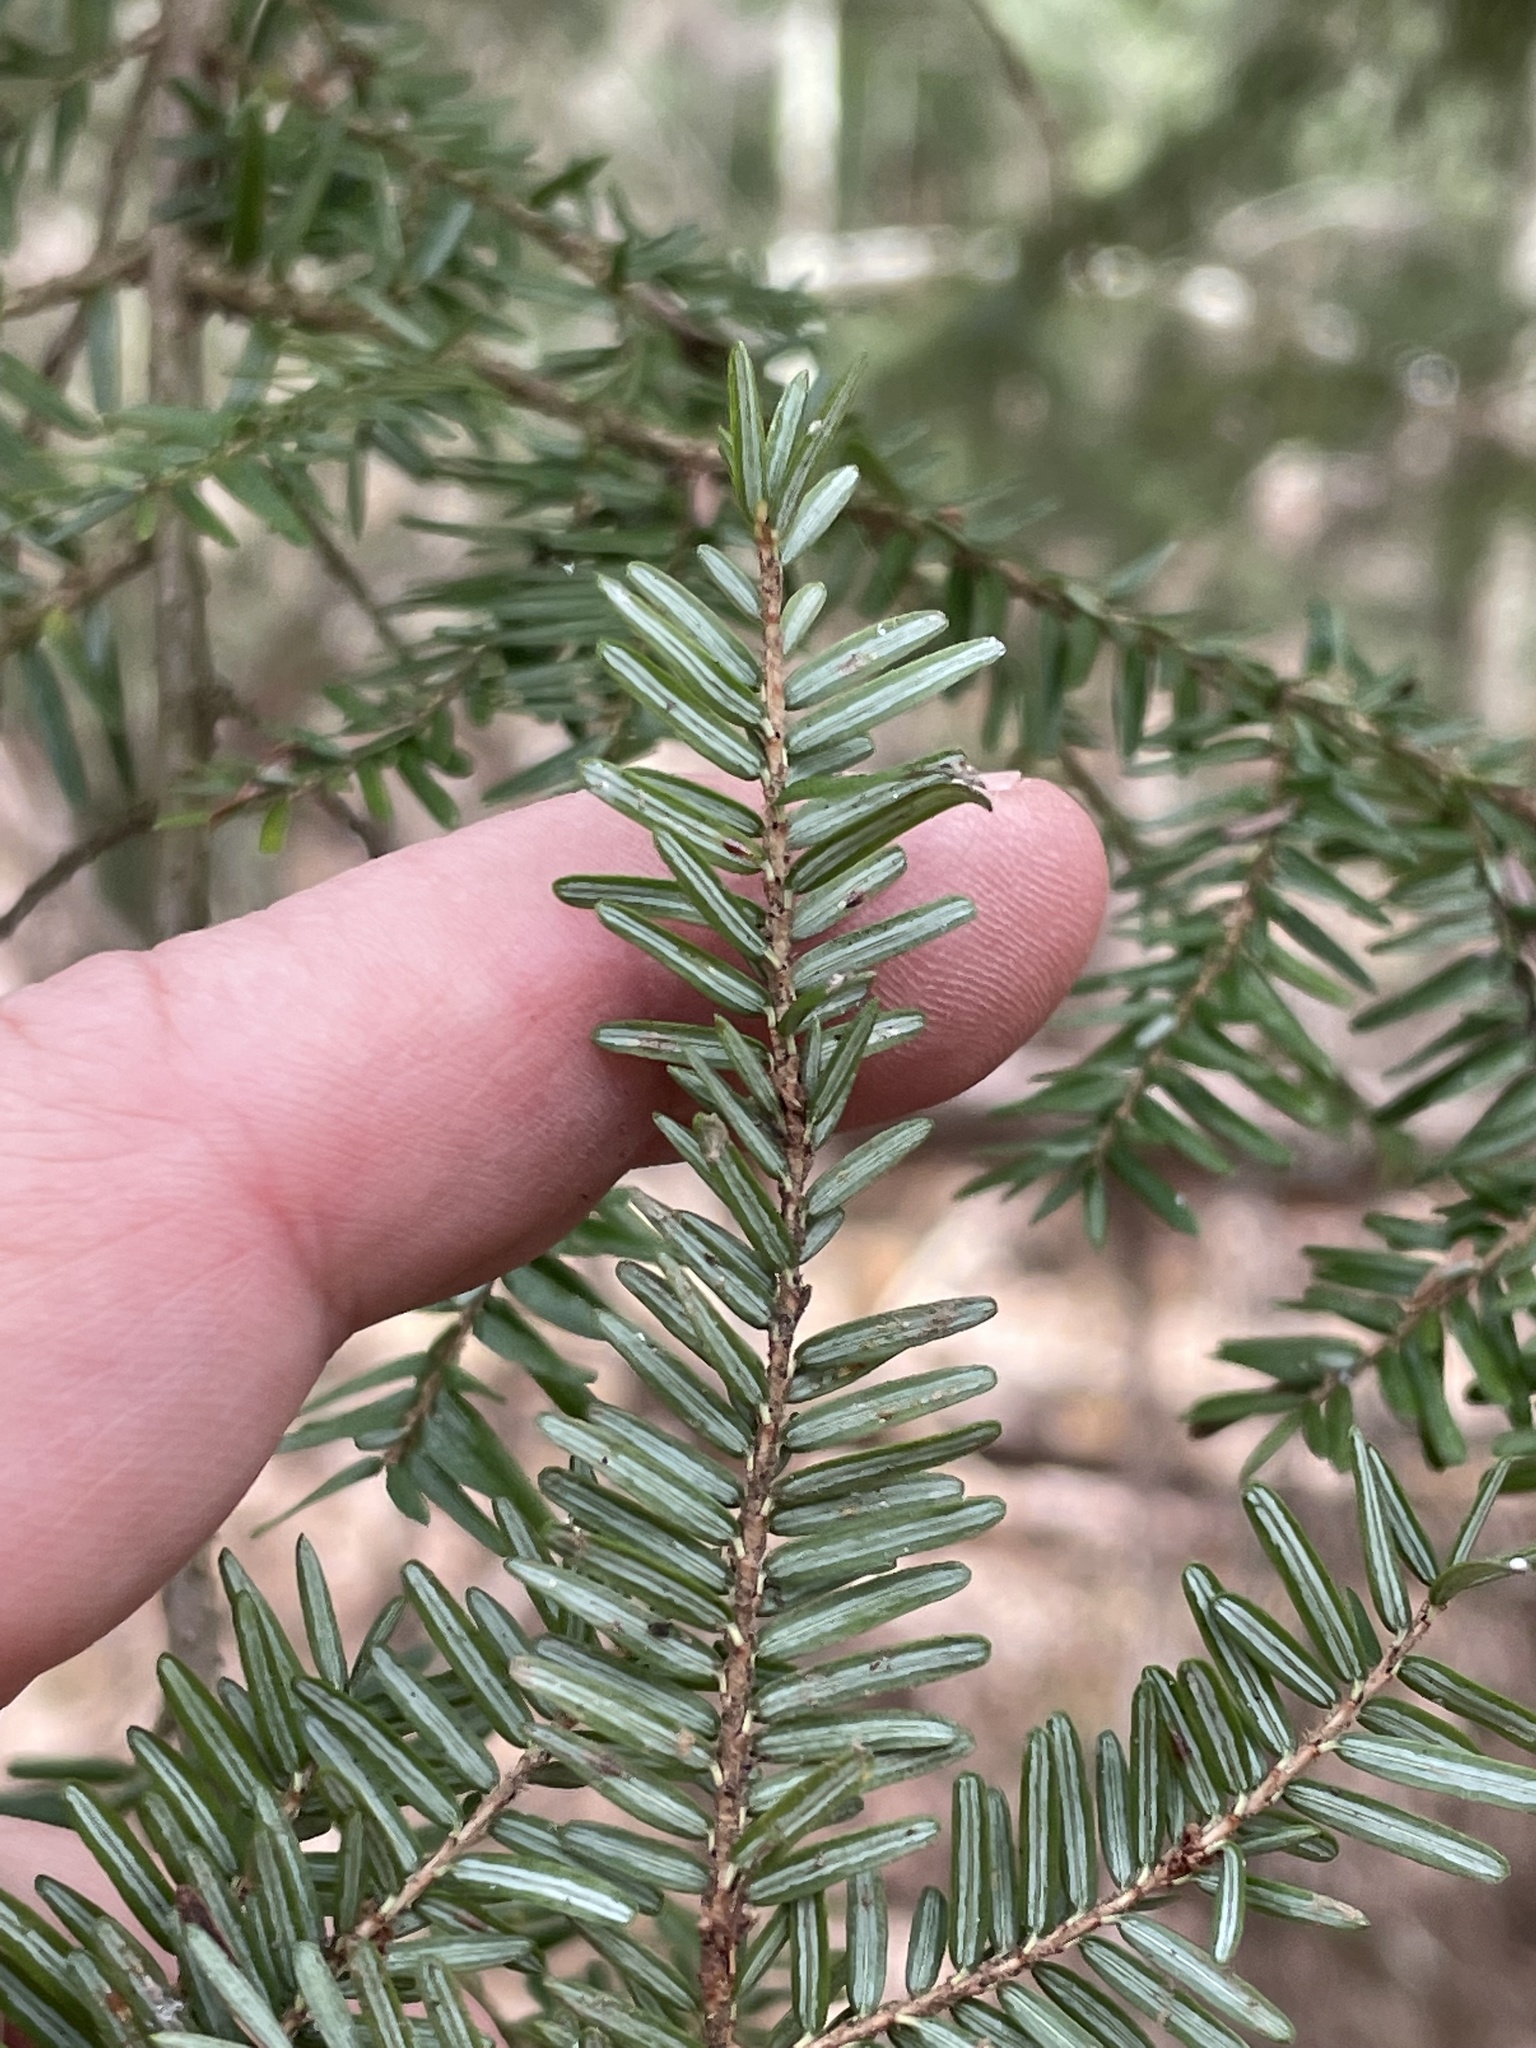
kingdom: Plantae
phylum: Tracheophyta
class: Pinopsida
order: Pinales
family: Pinaceae
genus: Tsuga
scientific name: Tsuga canadensis
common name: Eastern hemlock
